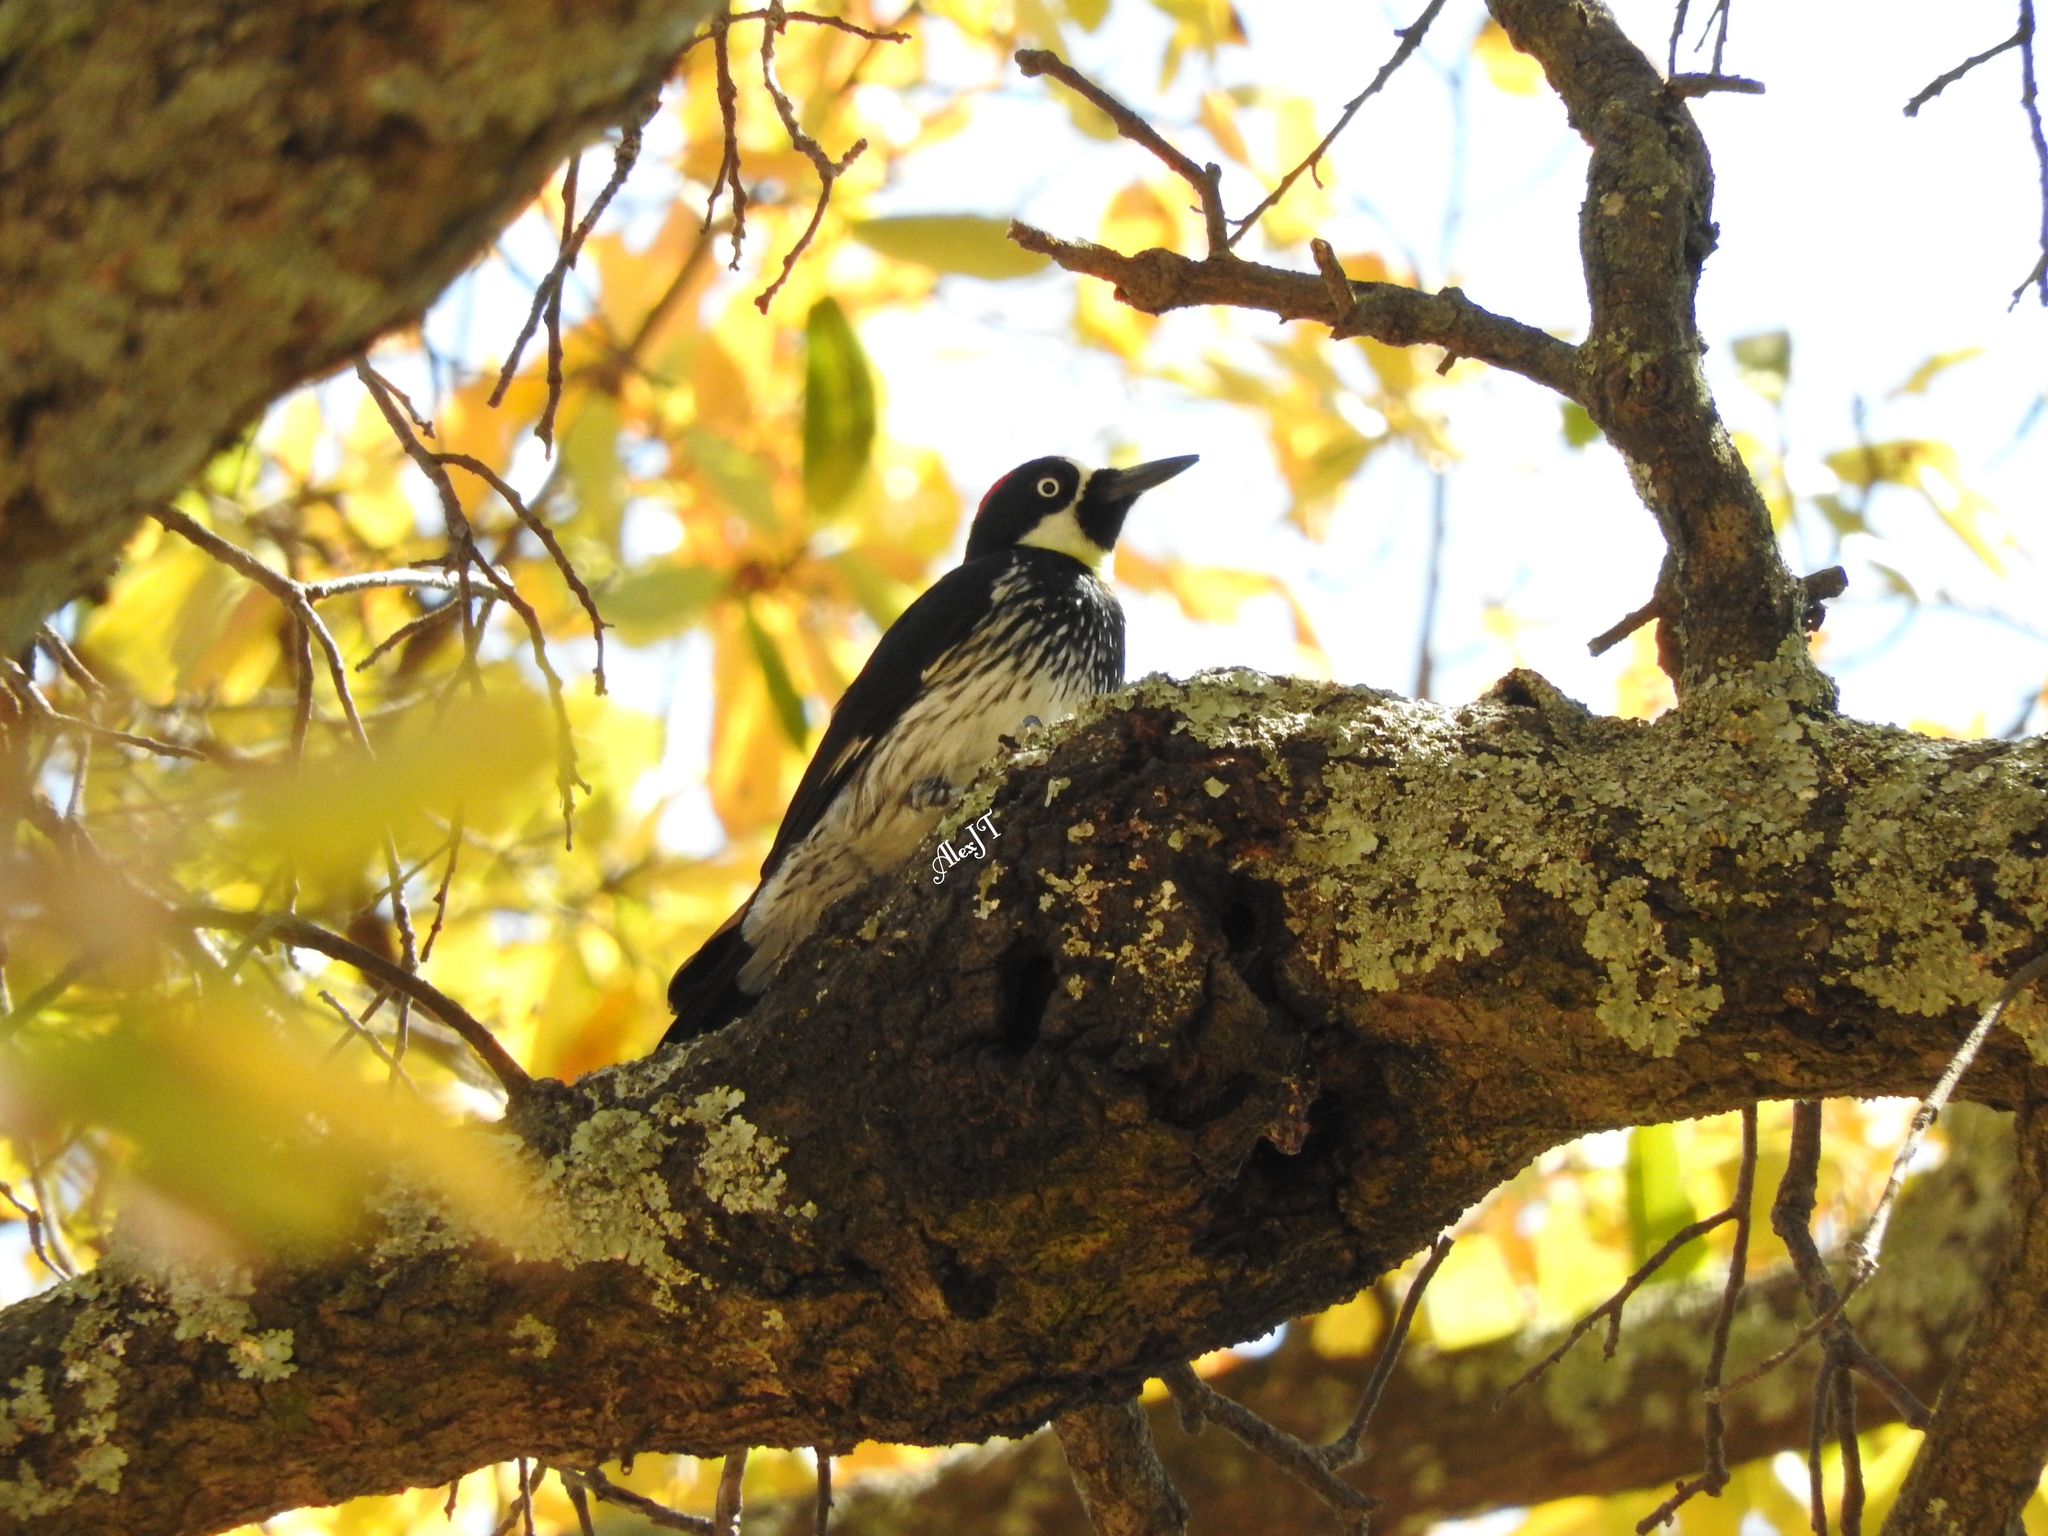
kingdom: Animalia
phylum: Chordata
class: Aves
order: Piciformes
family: Picidae
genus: Melanerpes
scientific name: Melanerpes formicivorus
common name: Acorn woodpecker
